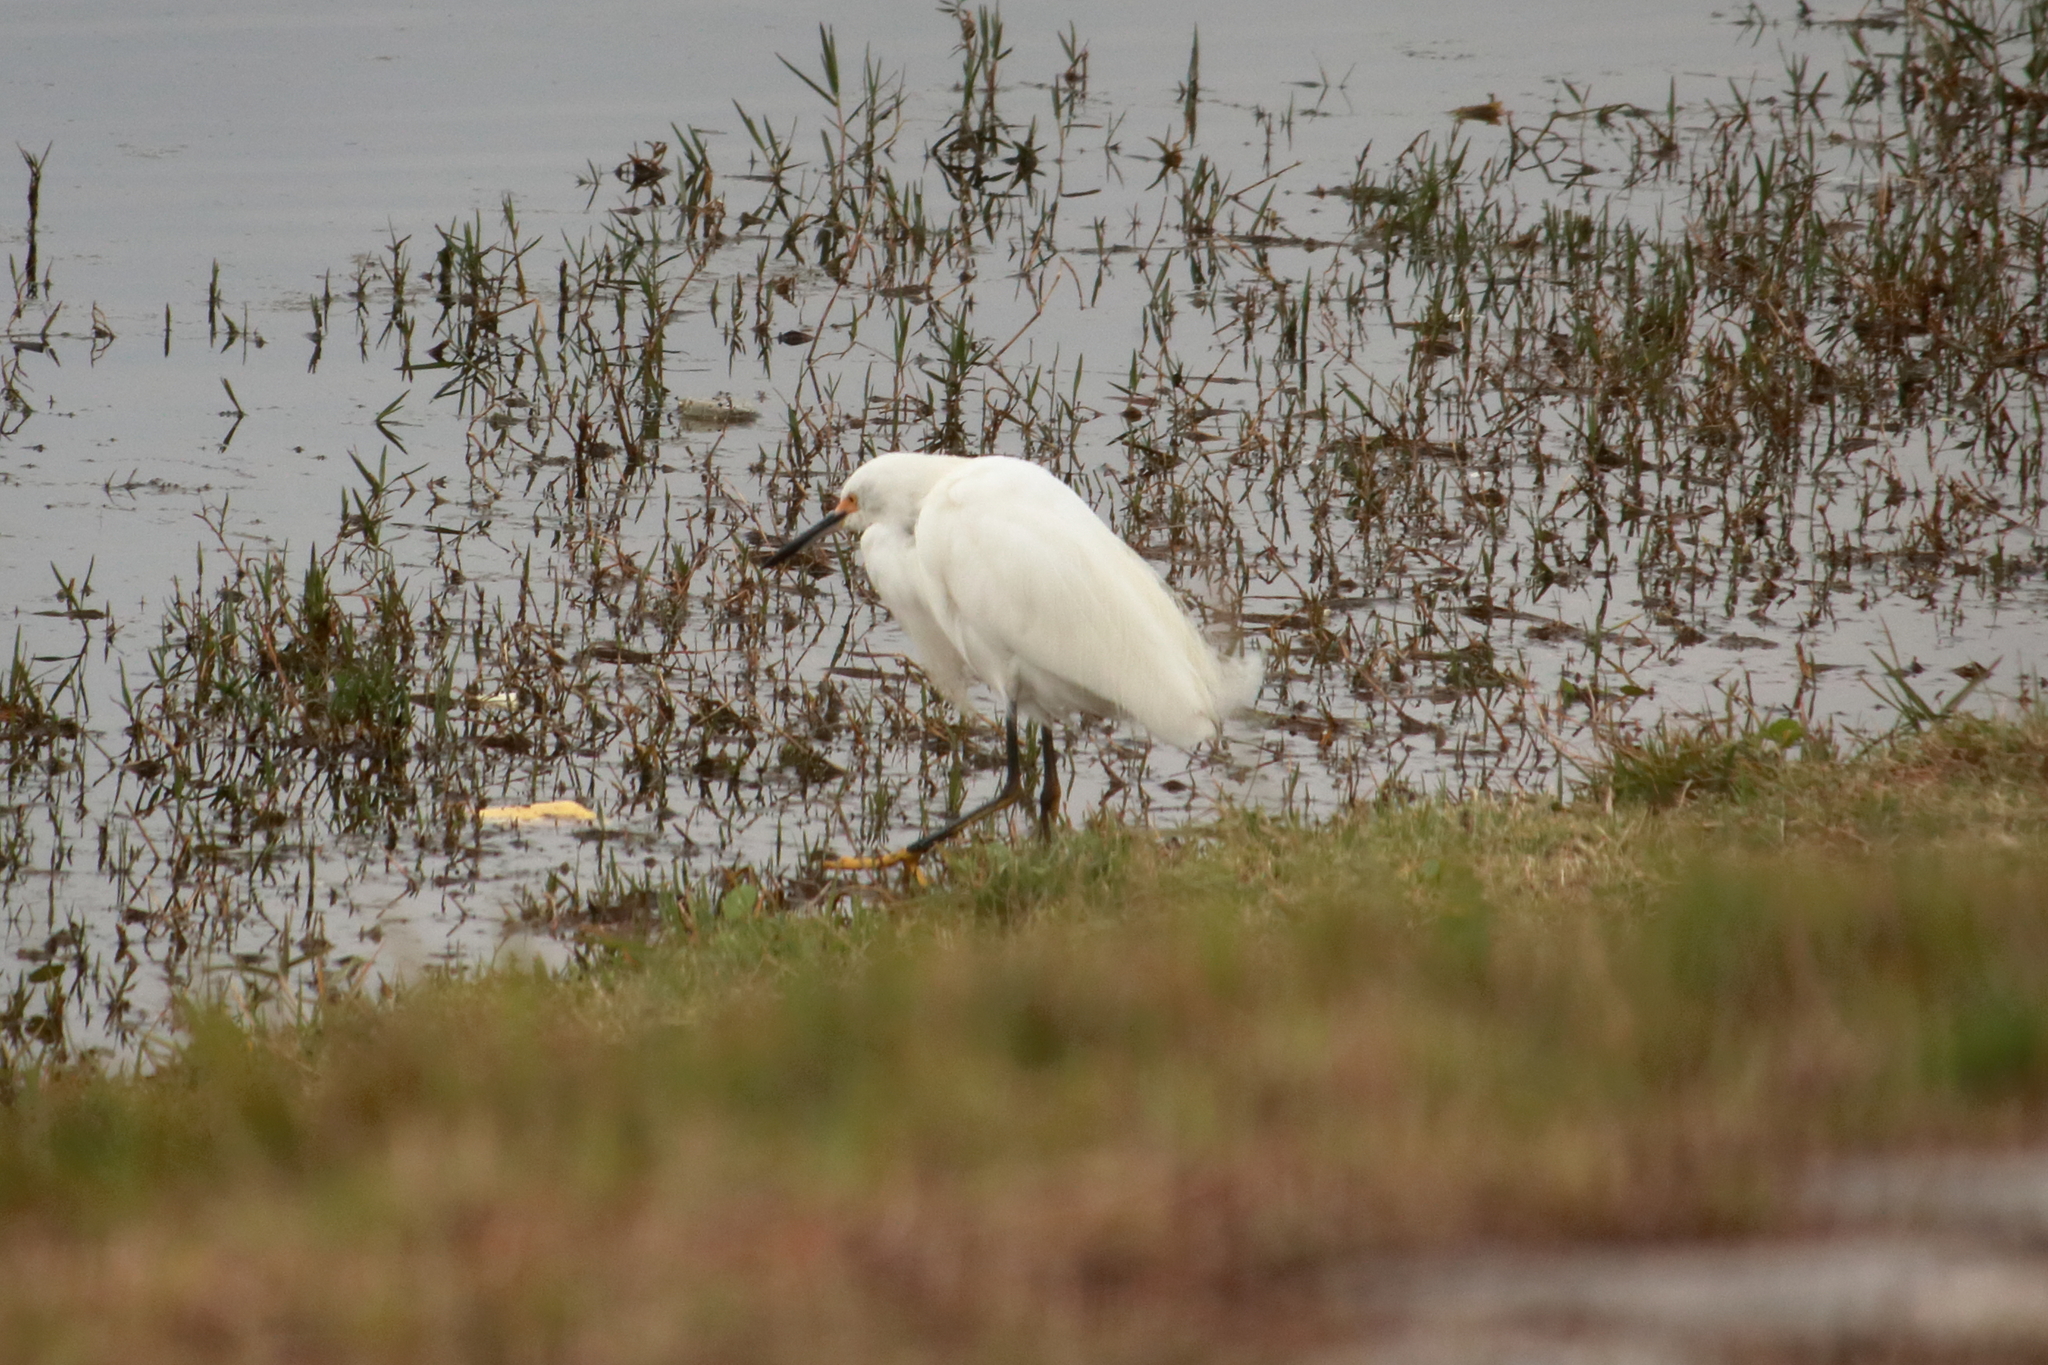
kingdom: Animalia
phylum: Chordata
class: Aves
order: Pelecaniformes
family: Ardeidae
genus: Egretta
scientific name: Egretta thula
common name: Snowy egret
